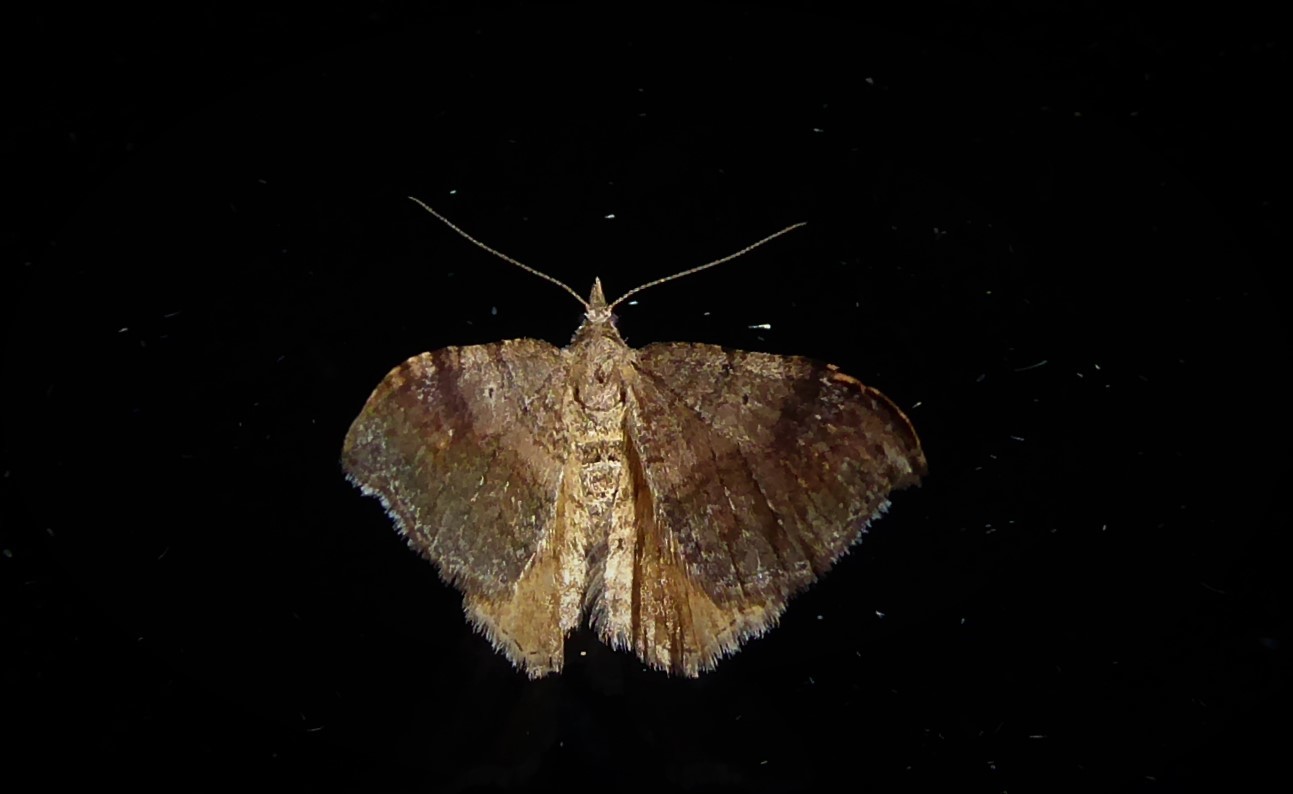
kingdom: Animalia
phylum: Arthropoda
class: Insecta
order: Lepidoptera
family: Geometridae
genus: Homodotis
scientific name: Homodotis megaspilata
